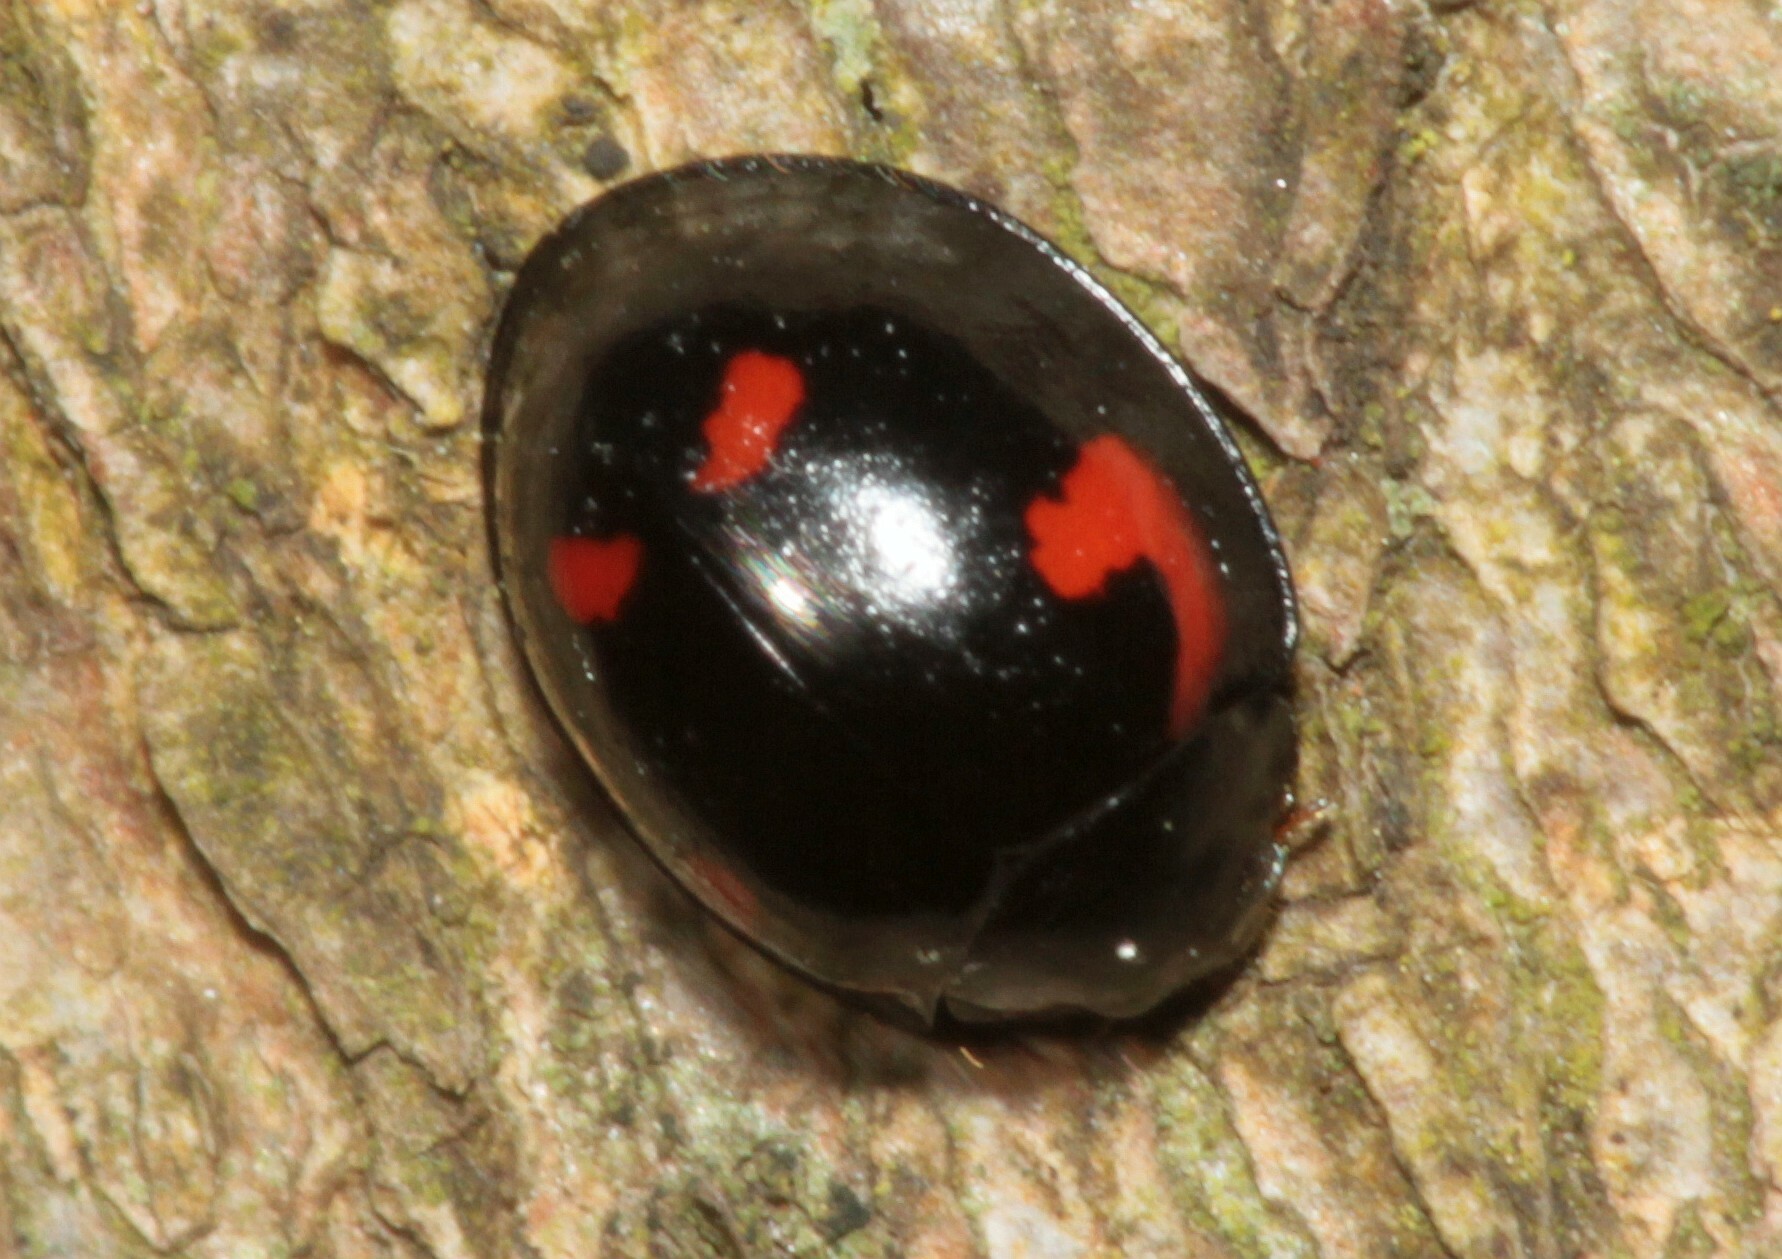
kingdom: Animalia
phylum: Arthropoda
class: Insecta
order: Coleoptera
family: Coccinellidae
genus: Brumus
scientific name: Brumus quadripustulatus
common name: Ladybird beetle
